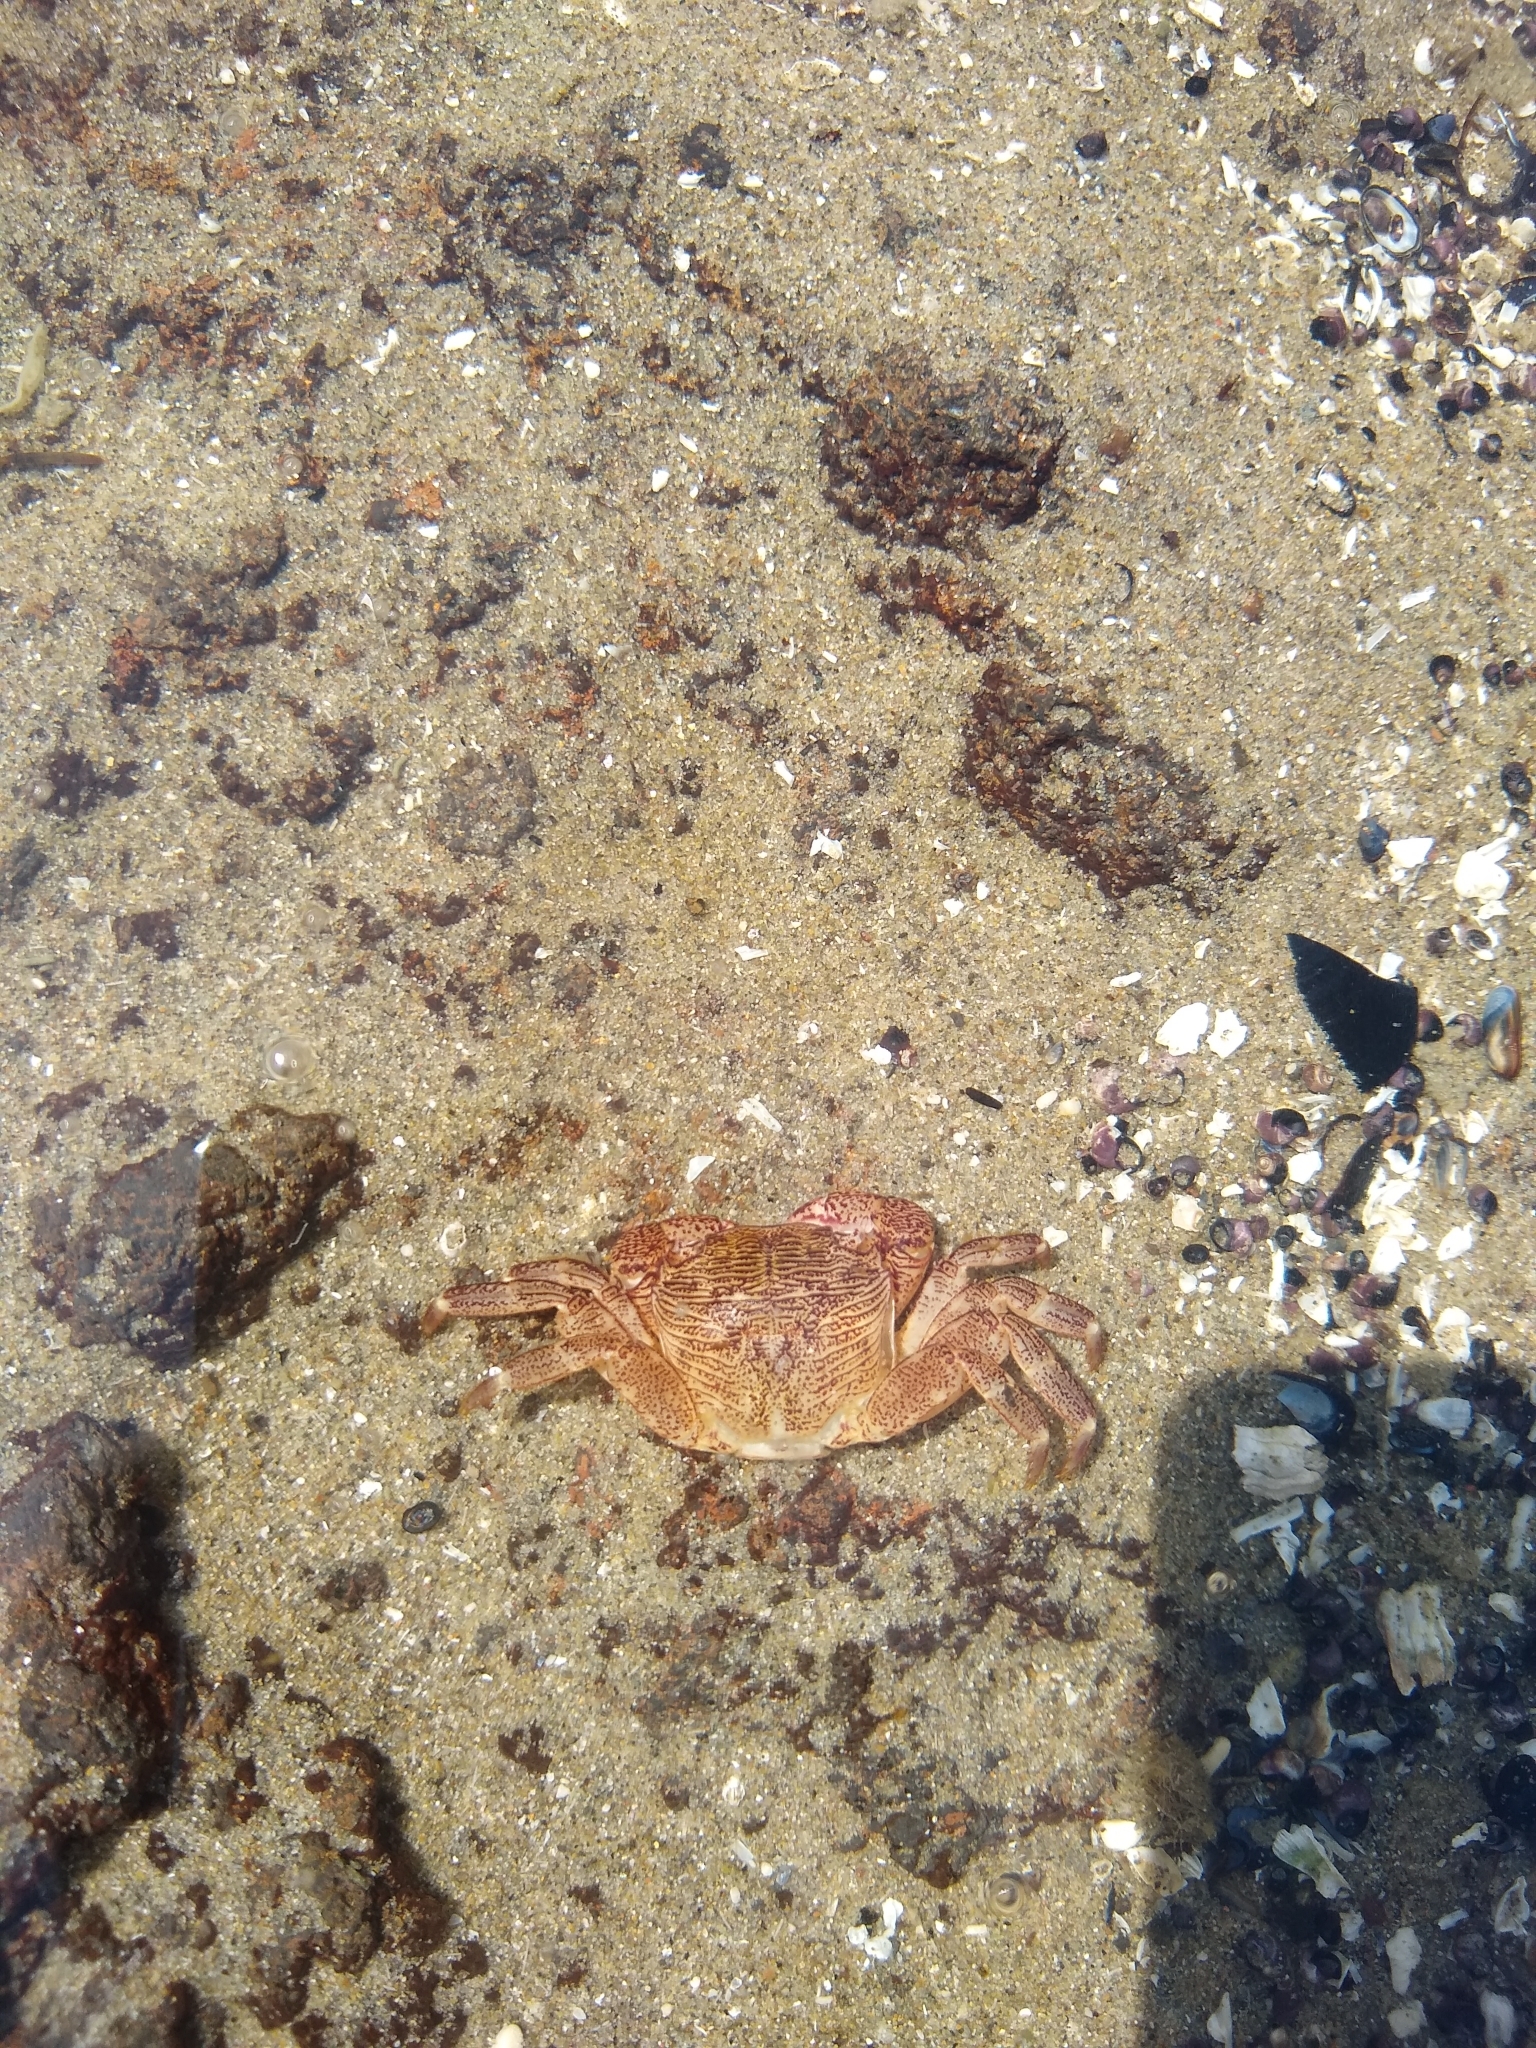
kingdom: Animalia
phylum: Arthropoda
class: Malacostraca
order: Decapoda
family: Grapsidae
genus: Pachygrapsus
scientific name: Pachygrapsus crassipes
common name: Striped shore crab
